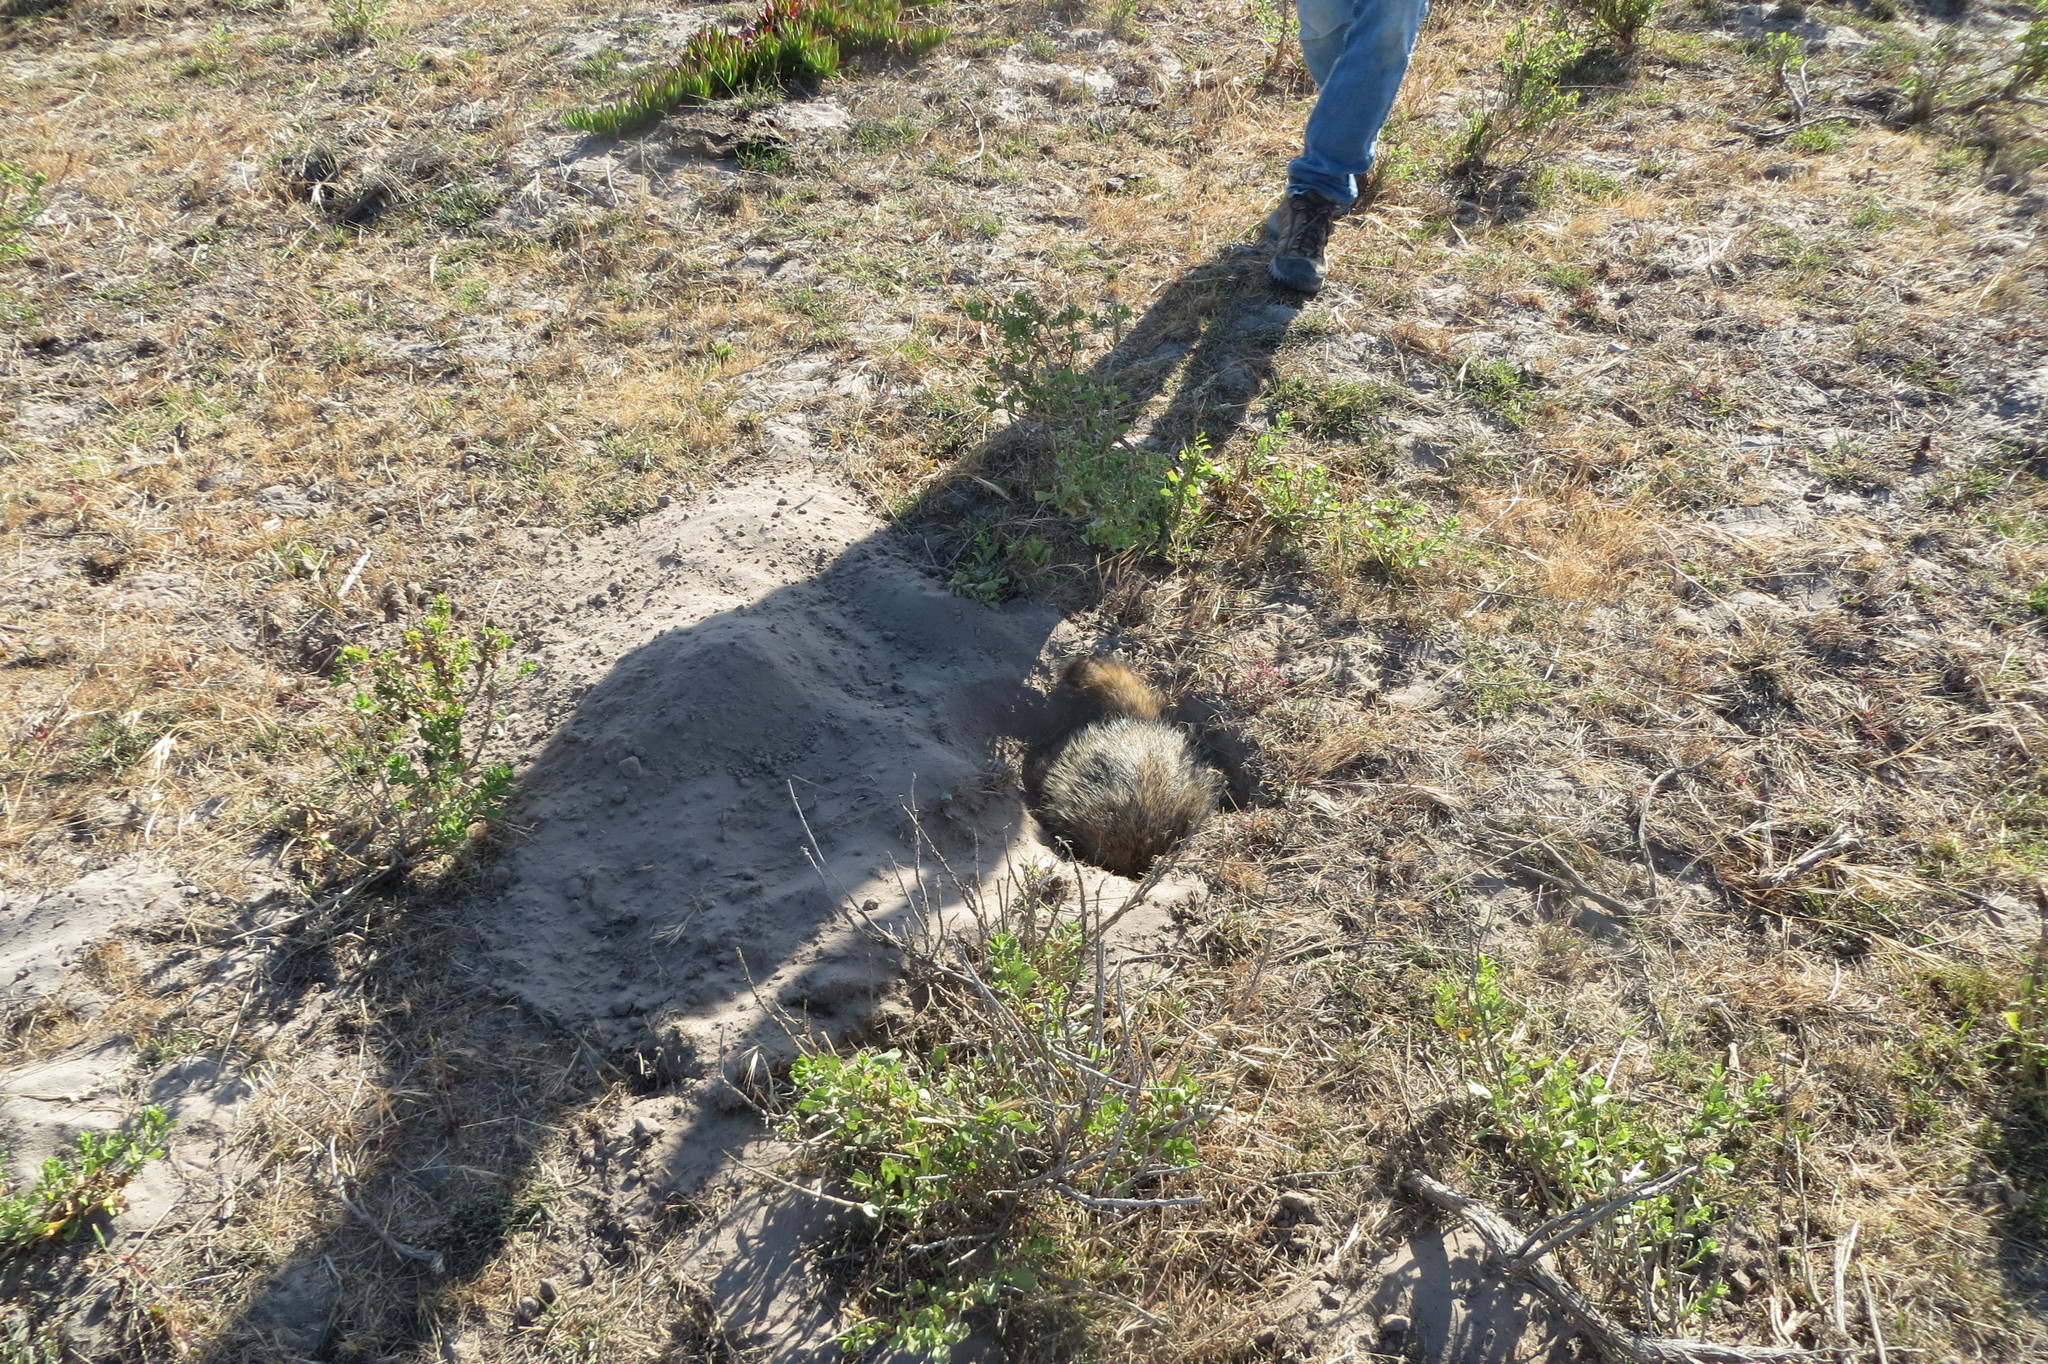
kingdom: Animalia
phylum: Chordata
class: Mammalia
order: Carnivora
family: Mustelidae
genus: Taxidea
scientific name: Taxidea taxus
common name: American badger
